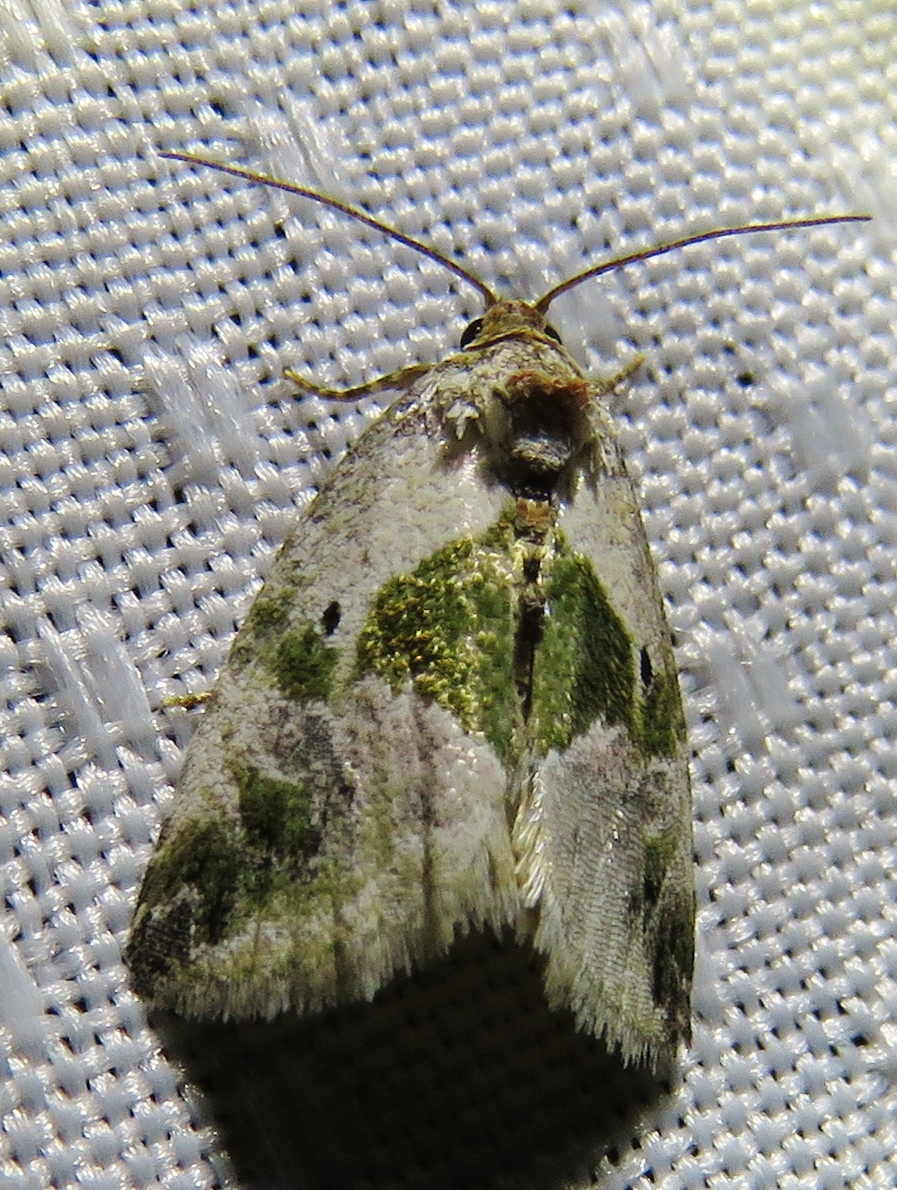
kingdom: Animalia
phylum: Arthropoda
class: Insecta
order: Lepidoptera
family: Noctuidae
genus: Maliattha
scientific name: Maliattha synochitis
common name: Black-dotted glyph
